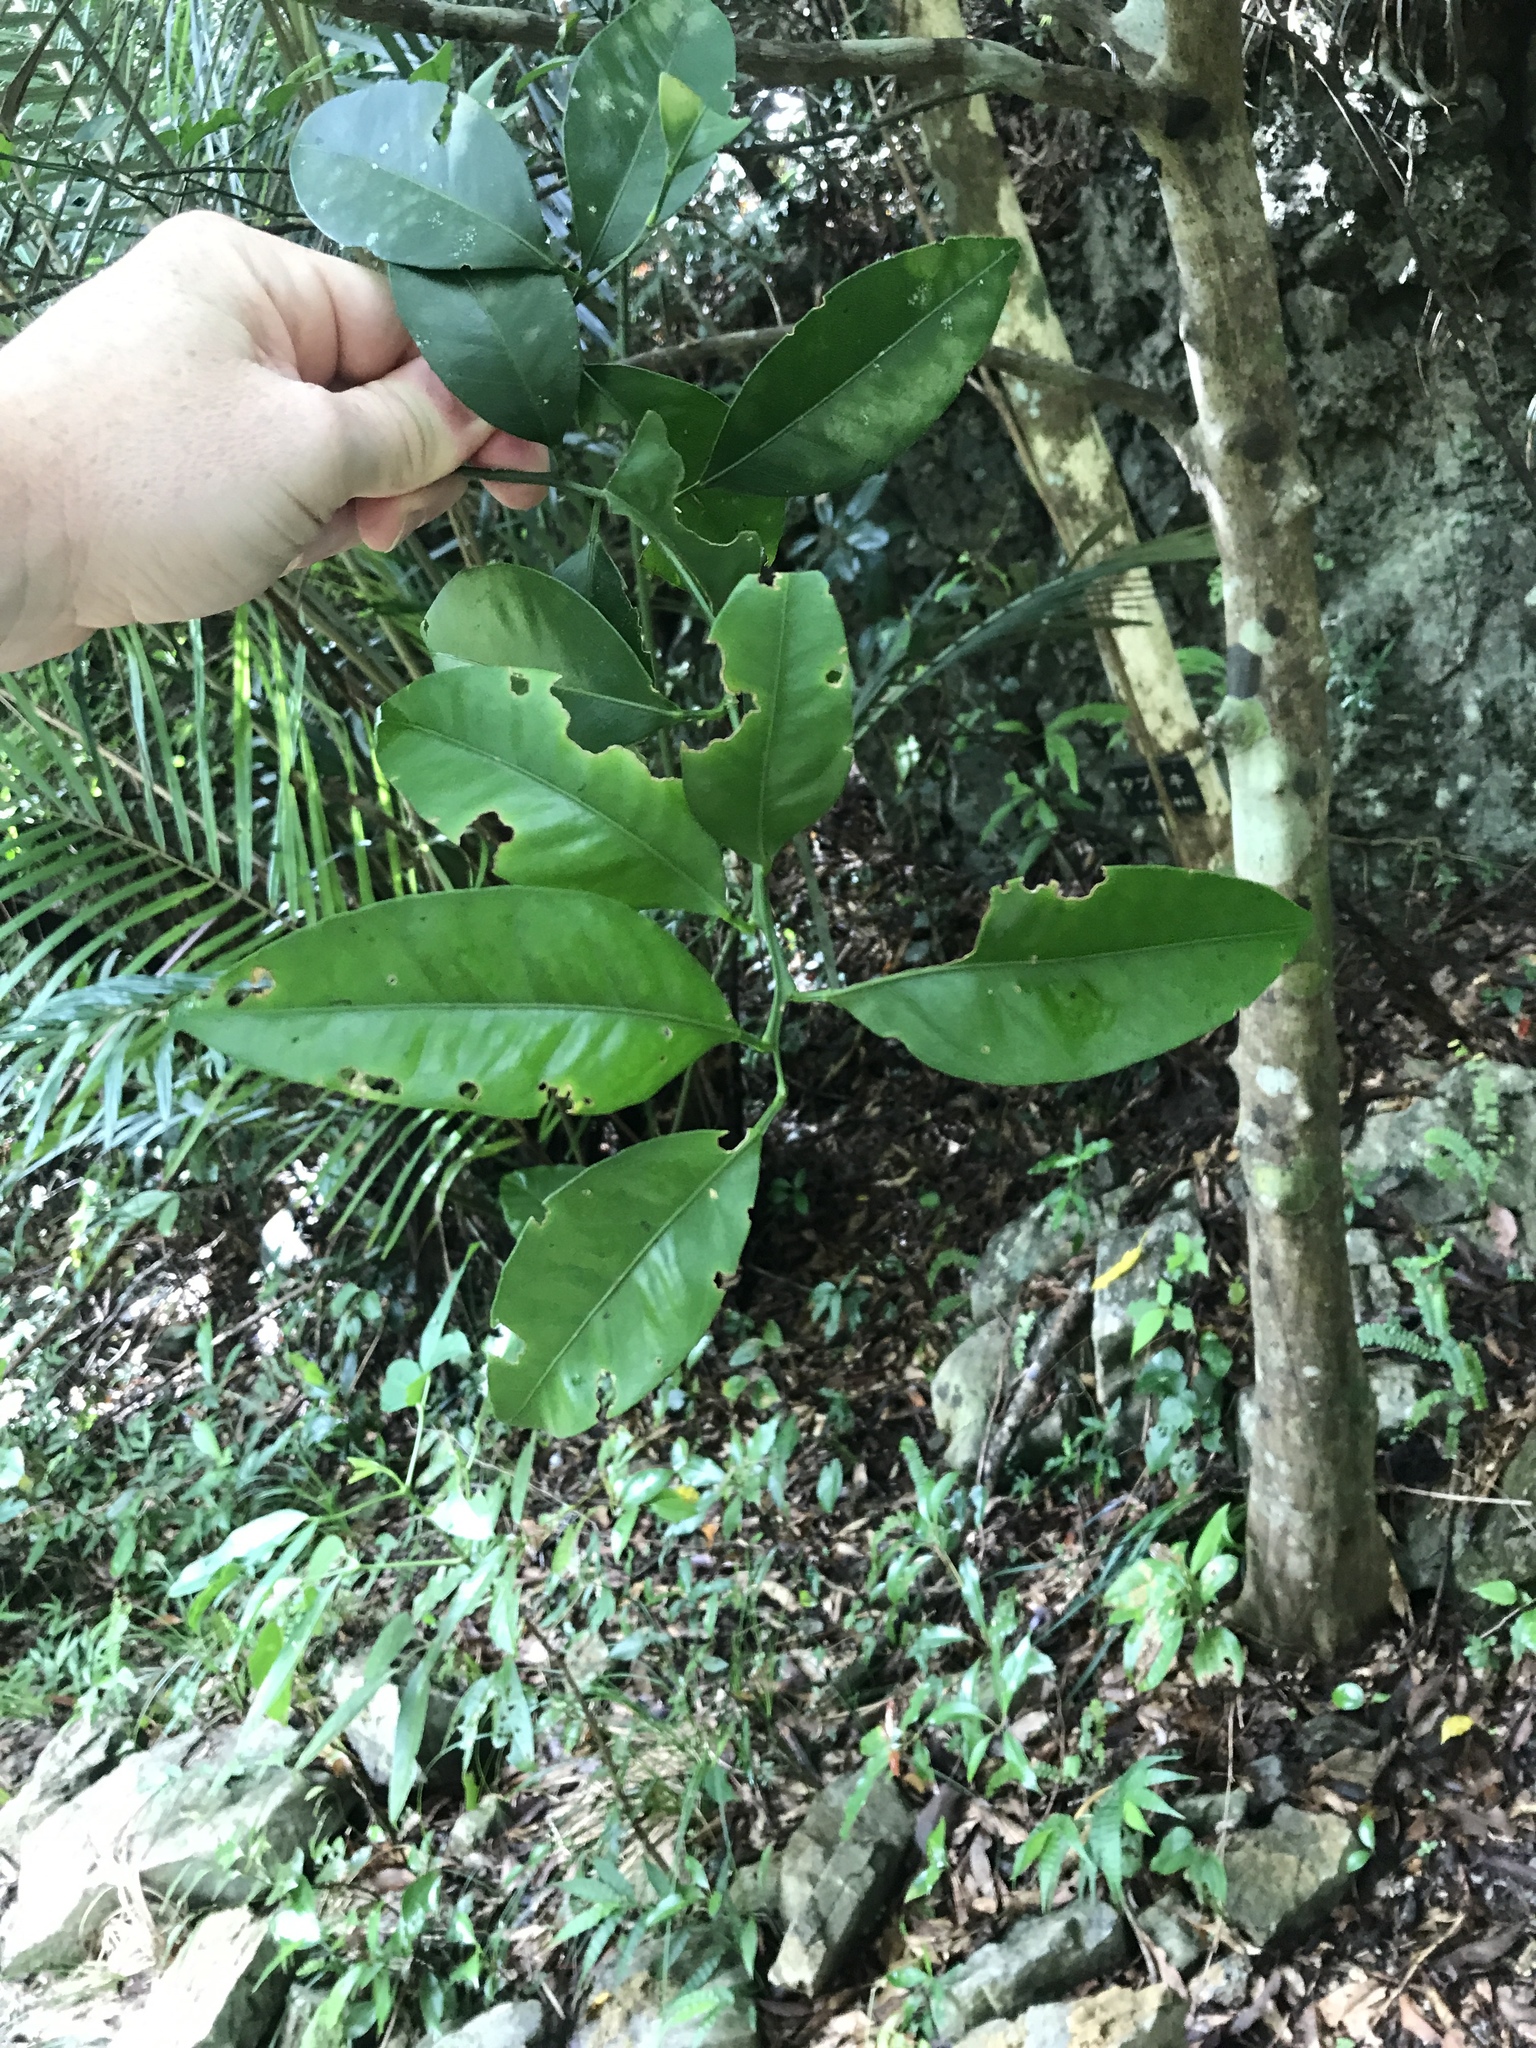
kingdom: Plantae
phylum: Tracheophyta
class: Magnoliopsida
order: Sapindales
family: Rutaceae
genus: Citrus
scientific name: Citrus
